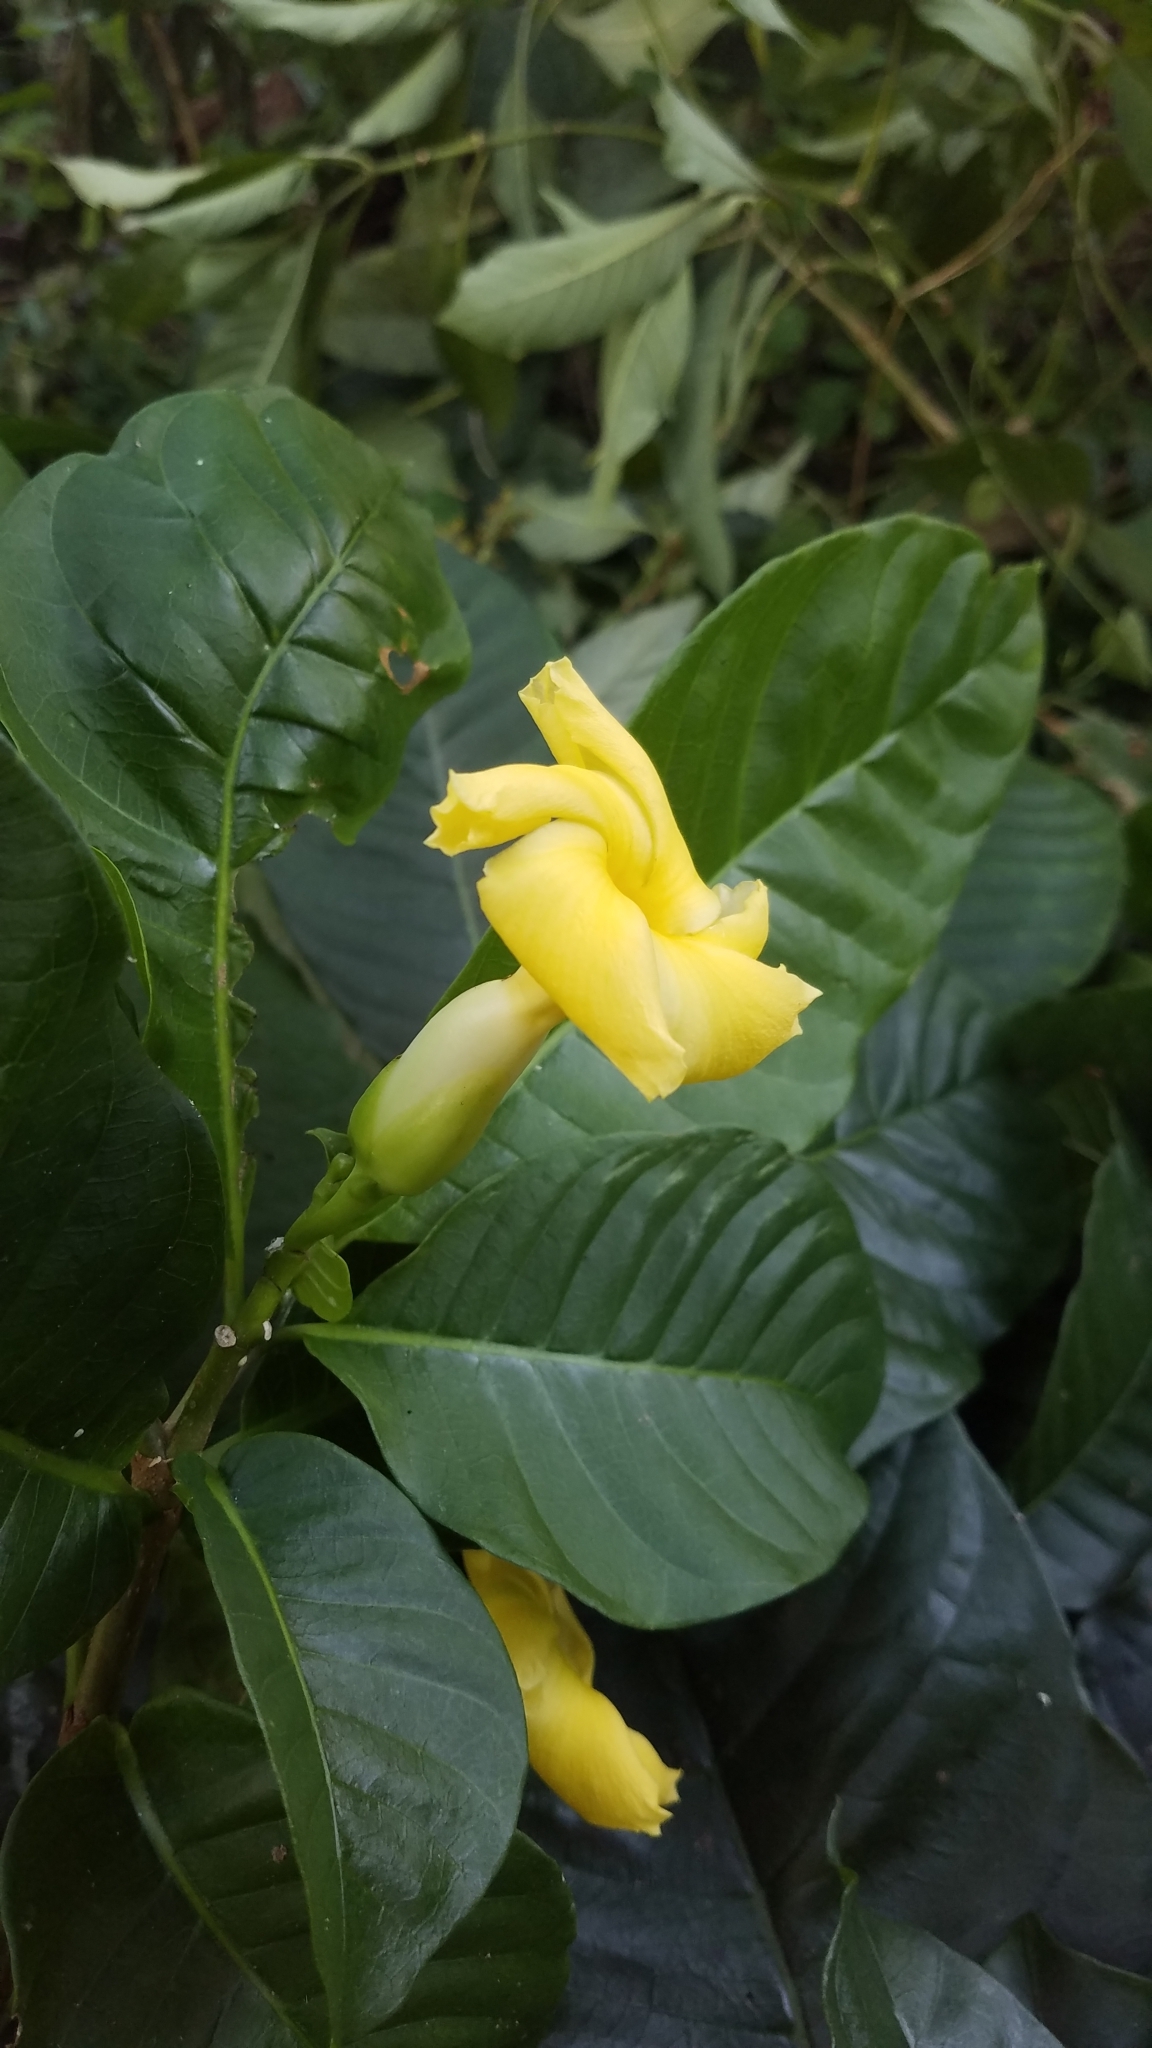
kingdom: Plantae
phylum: Tracheophyta
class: Magnoliopsida
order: Gentianales
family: Apocynaceae
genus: Tabernaemontana
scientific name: Tabernaemontana donnell-smithii
